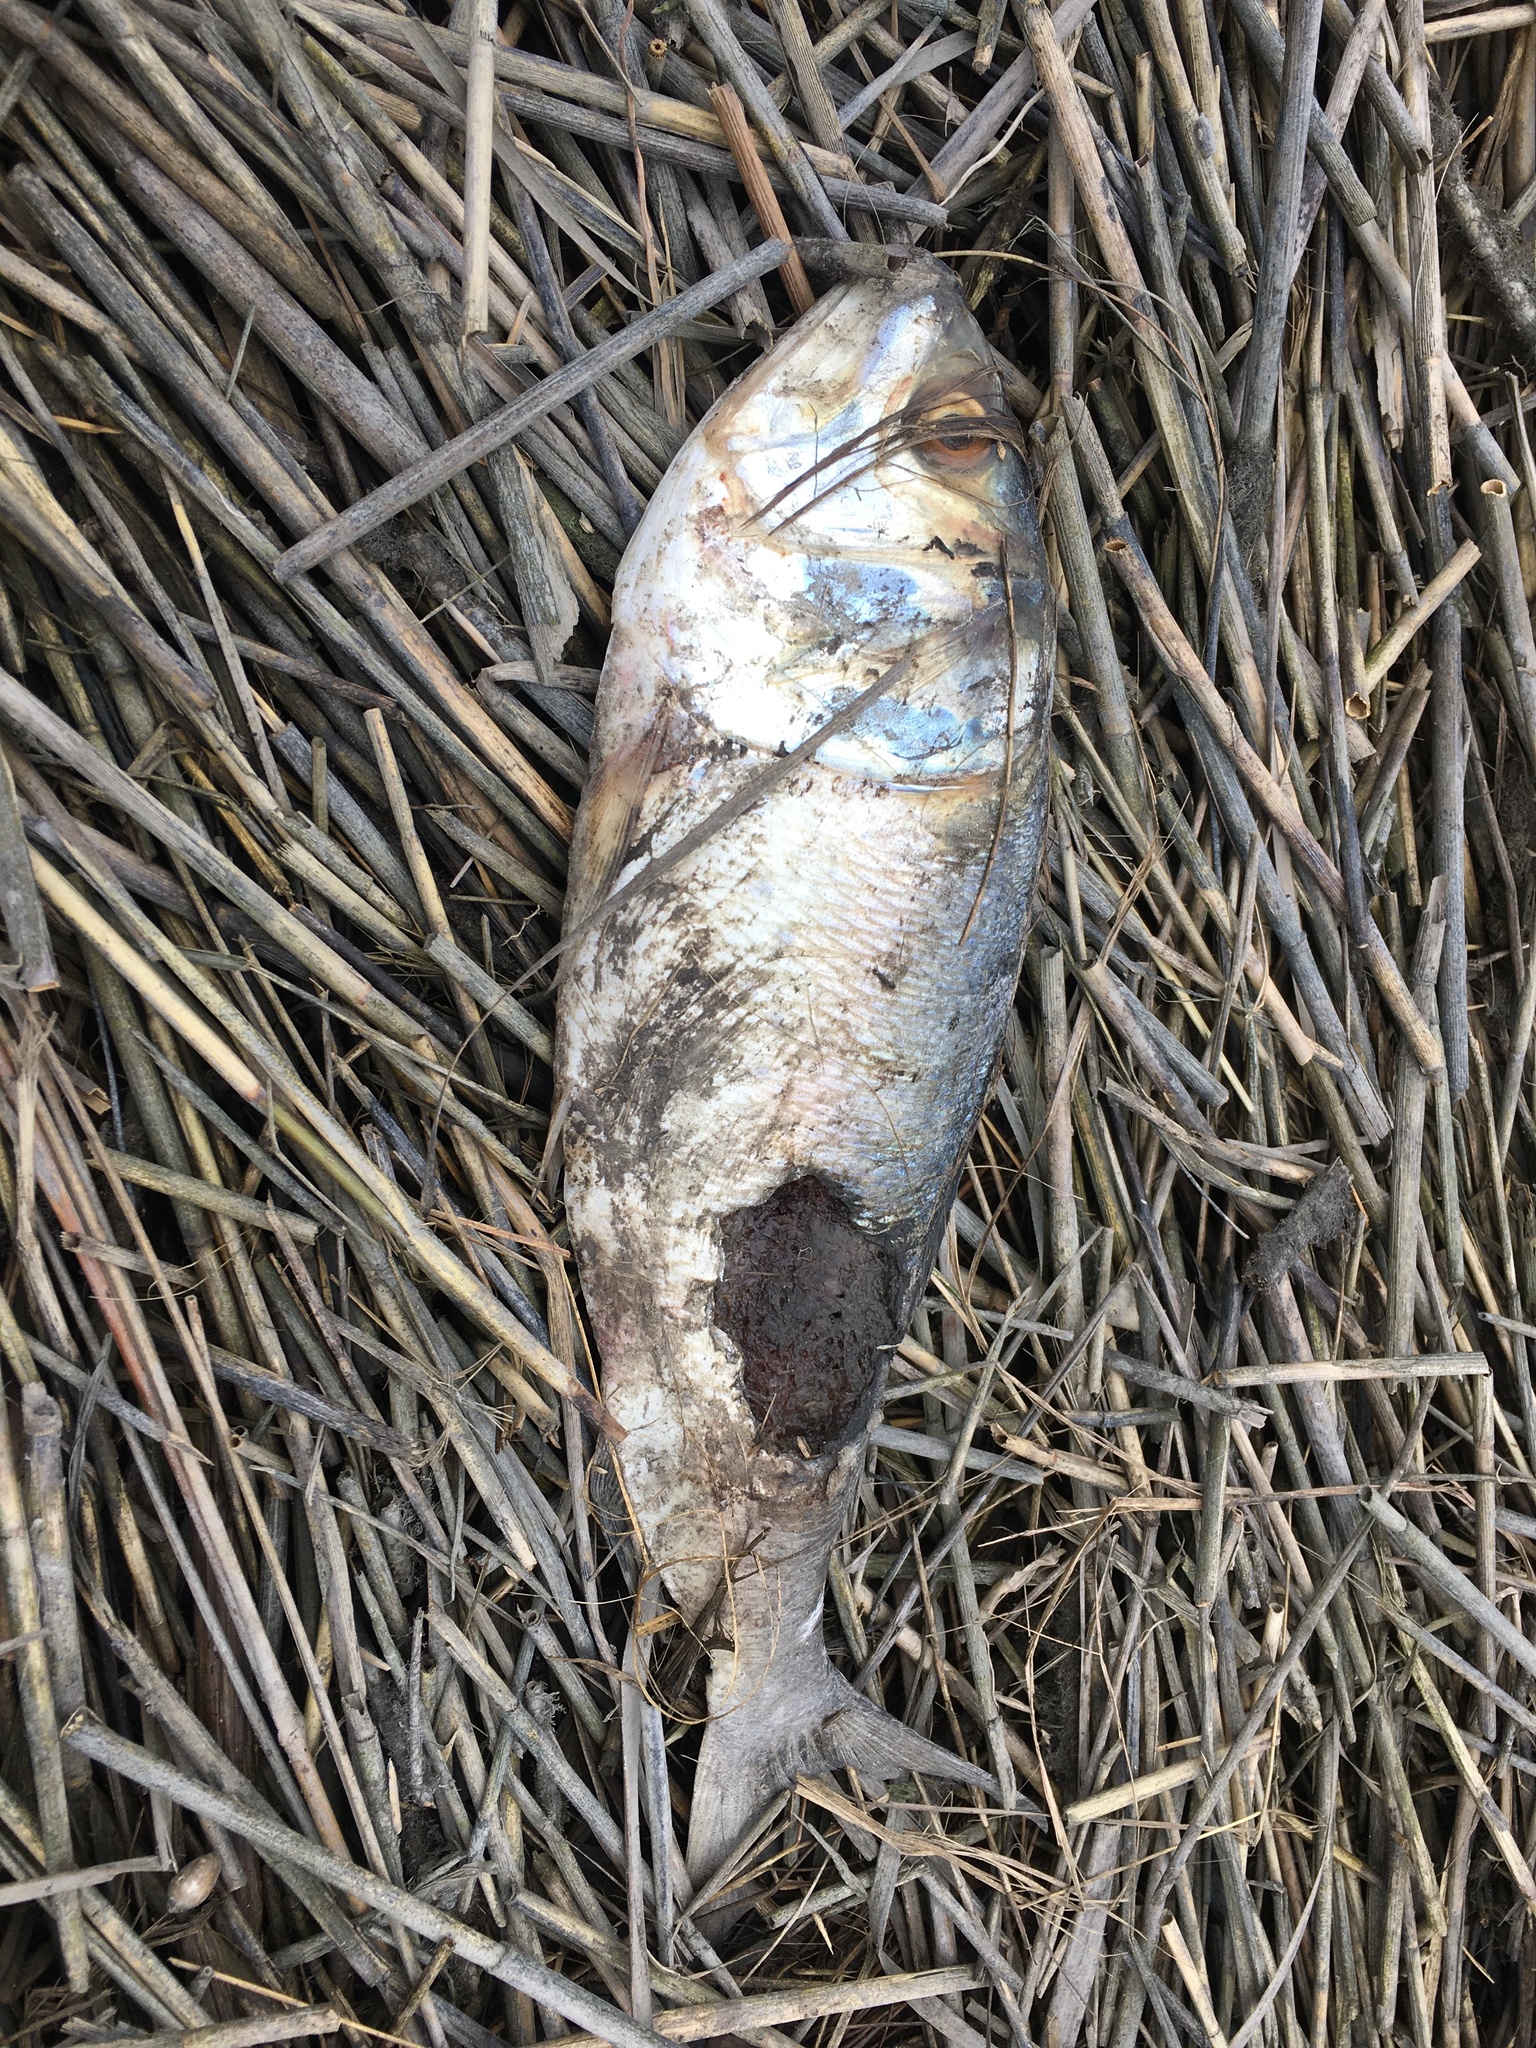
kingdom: Animalia
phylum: Chordata
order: Clupeiformes
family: Clupeidae
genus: Brevoortia
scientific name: Brevoortia tyrannus
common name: Atlantic menhaden
